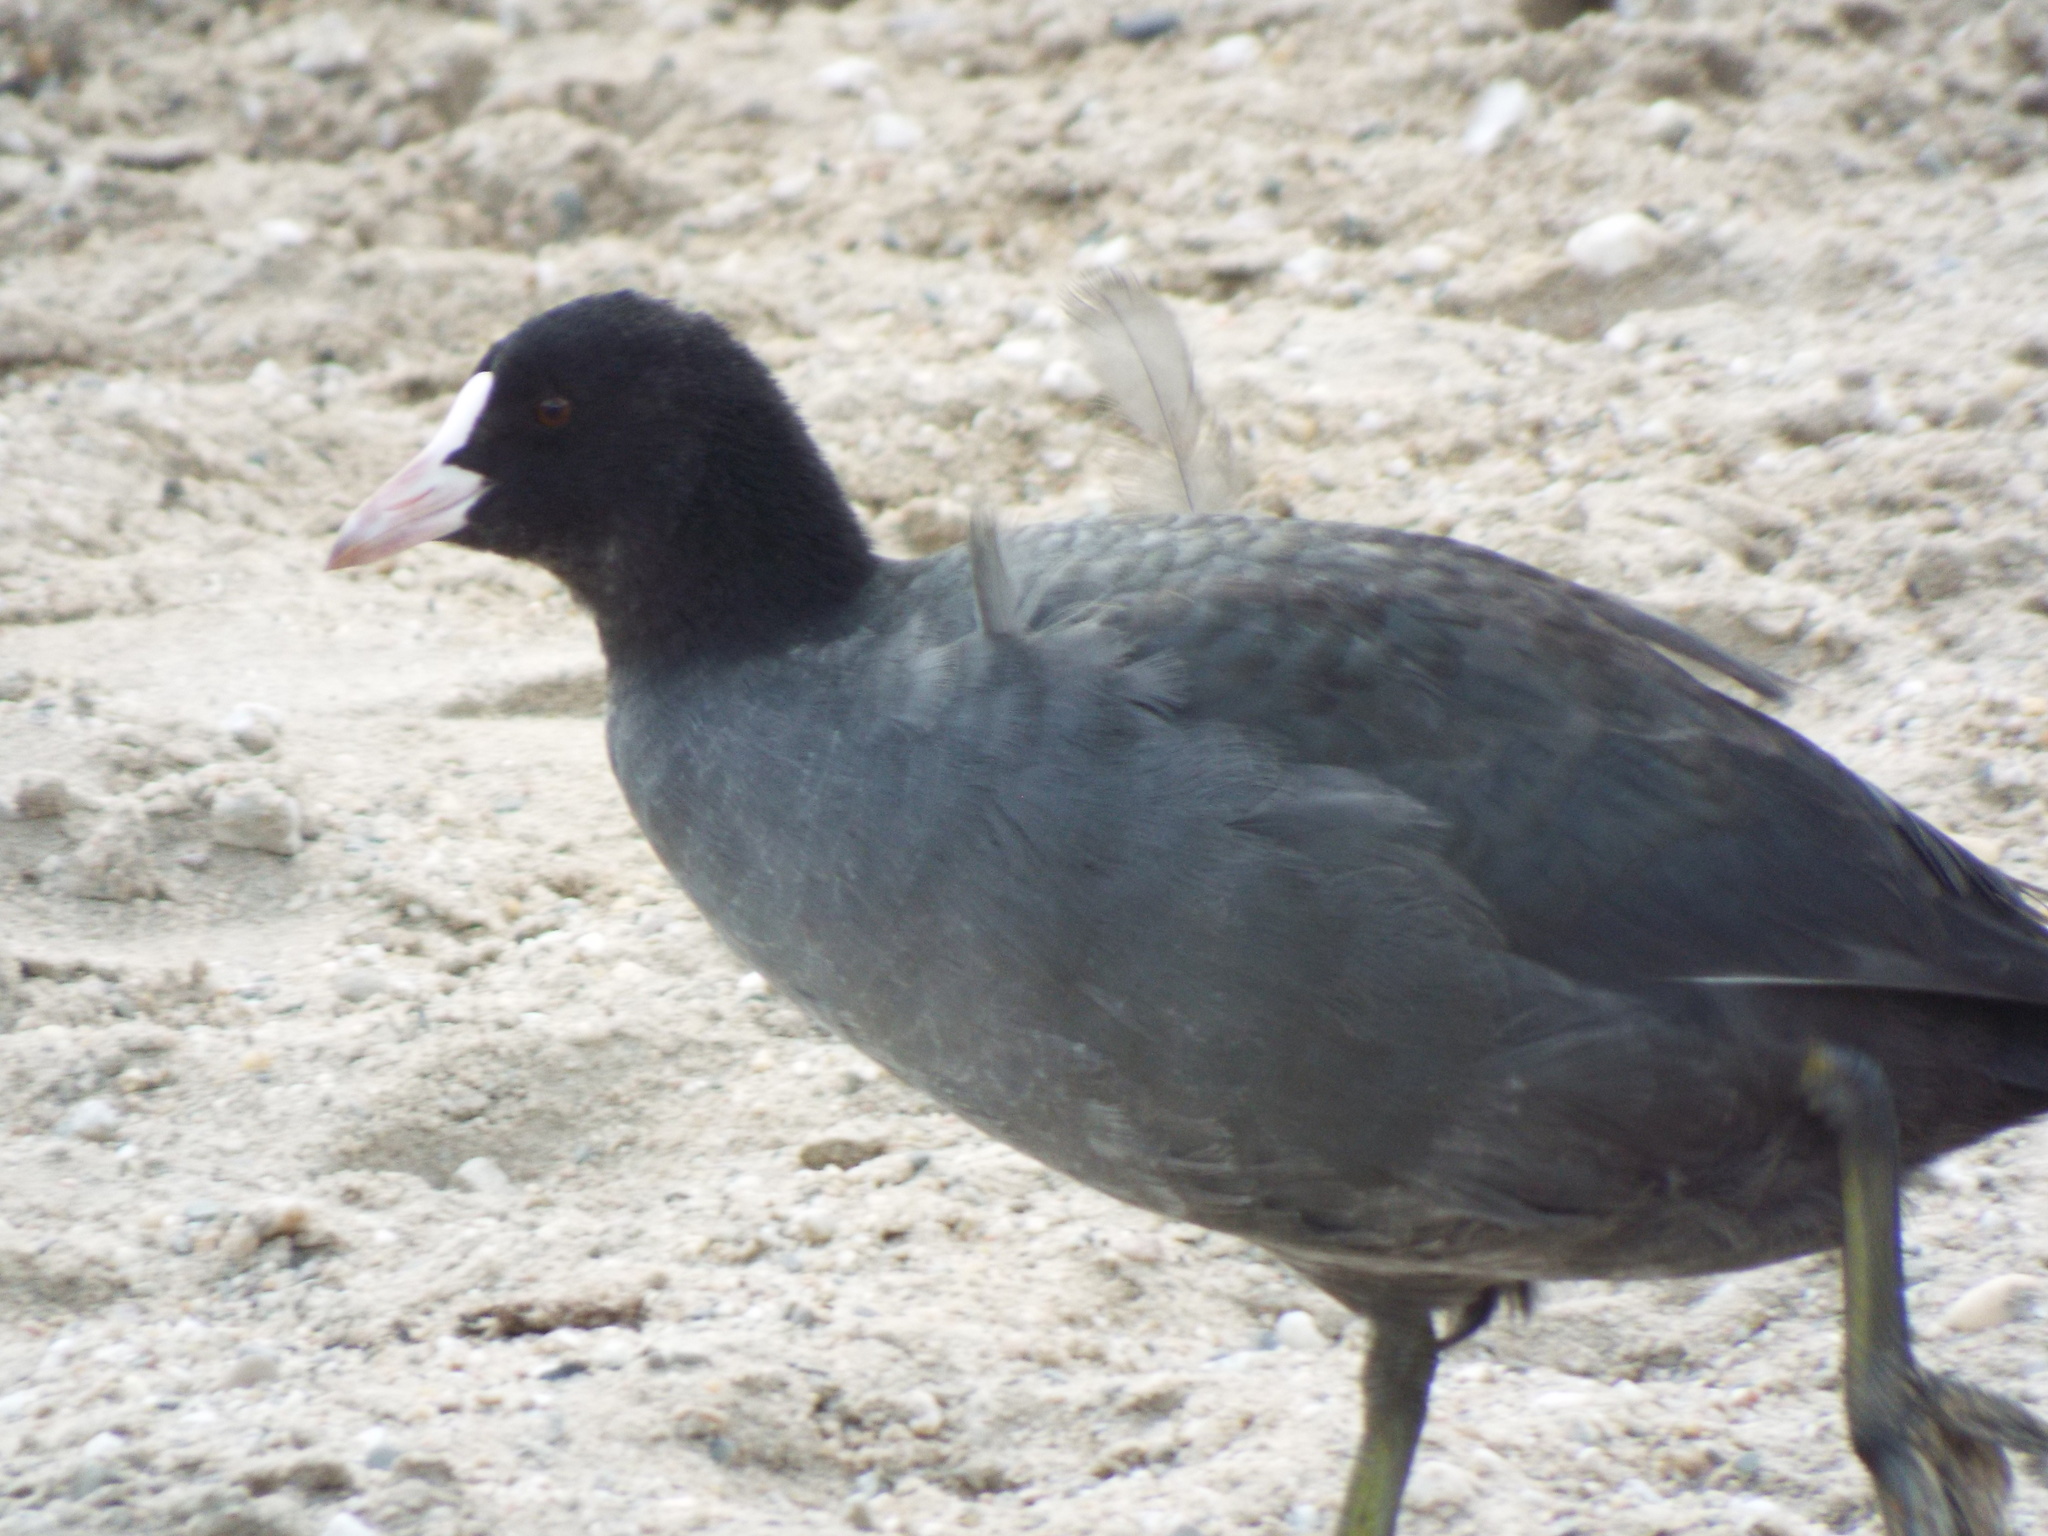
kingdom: Animalia
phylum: Chordata
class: Aves
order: Gruiformes
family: Rallidae
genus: Fulica
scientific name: Fulica atra
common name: Eurasian coot
